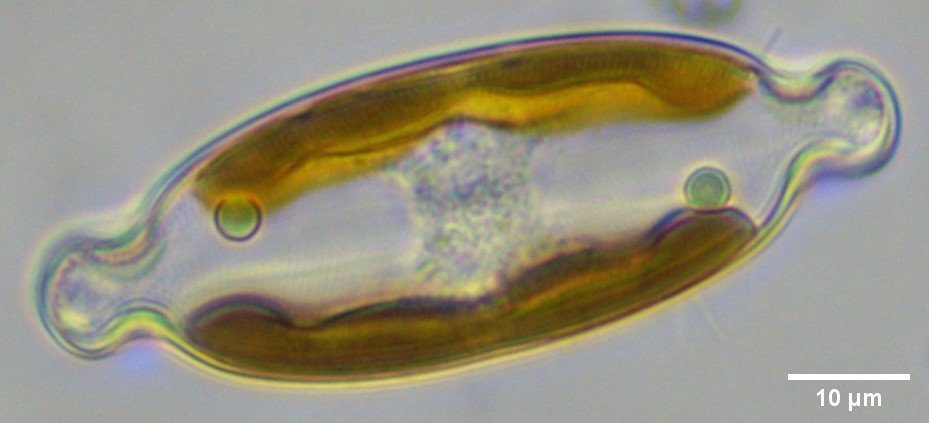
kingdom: Chromista
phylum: Ochrophyta
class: Bacillariophyceae
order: Naviculales
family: Naviculaceae
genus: Caloneis
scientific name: Caloneis amphisbaena
